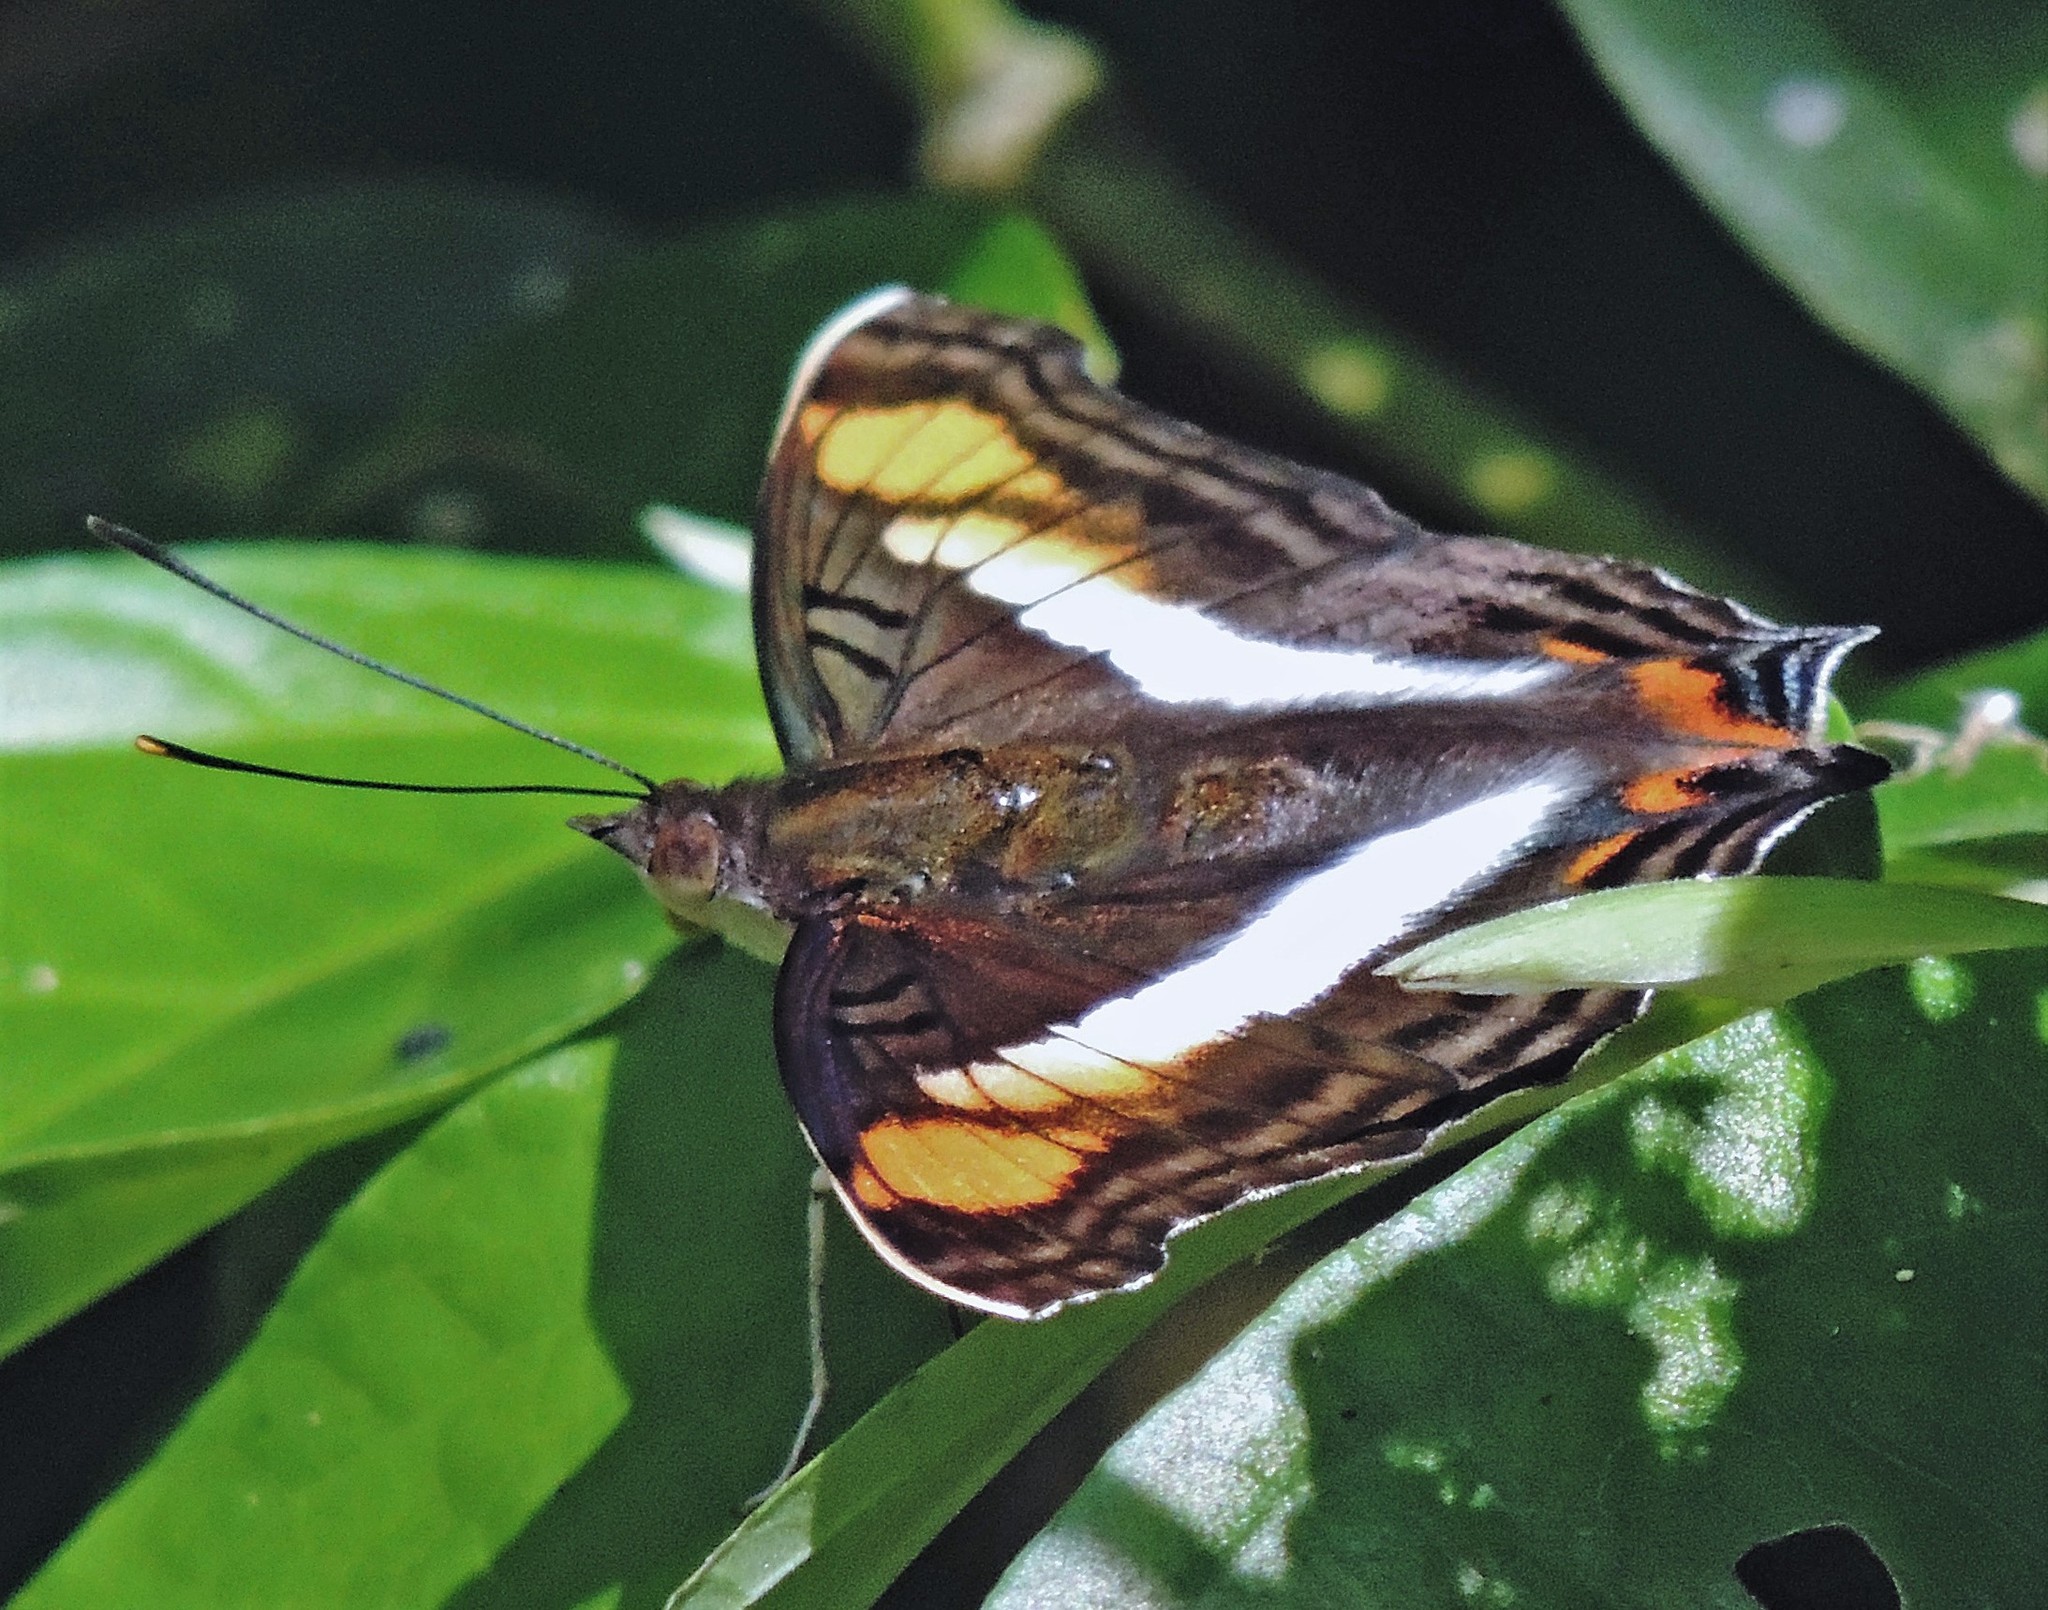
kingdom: Animalia
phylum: Arthropoda
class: Insecta
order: Lepidoptera
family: Nymphalidae
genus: Doxocopa
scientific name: Doxocopa linda
